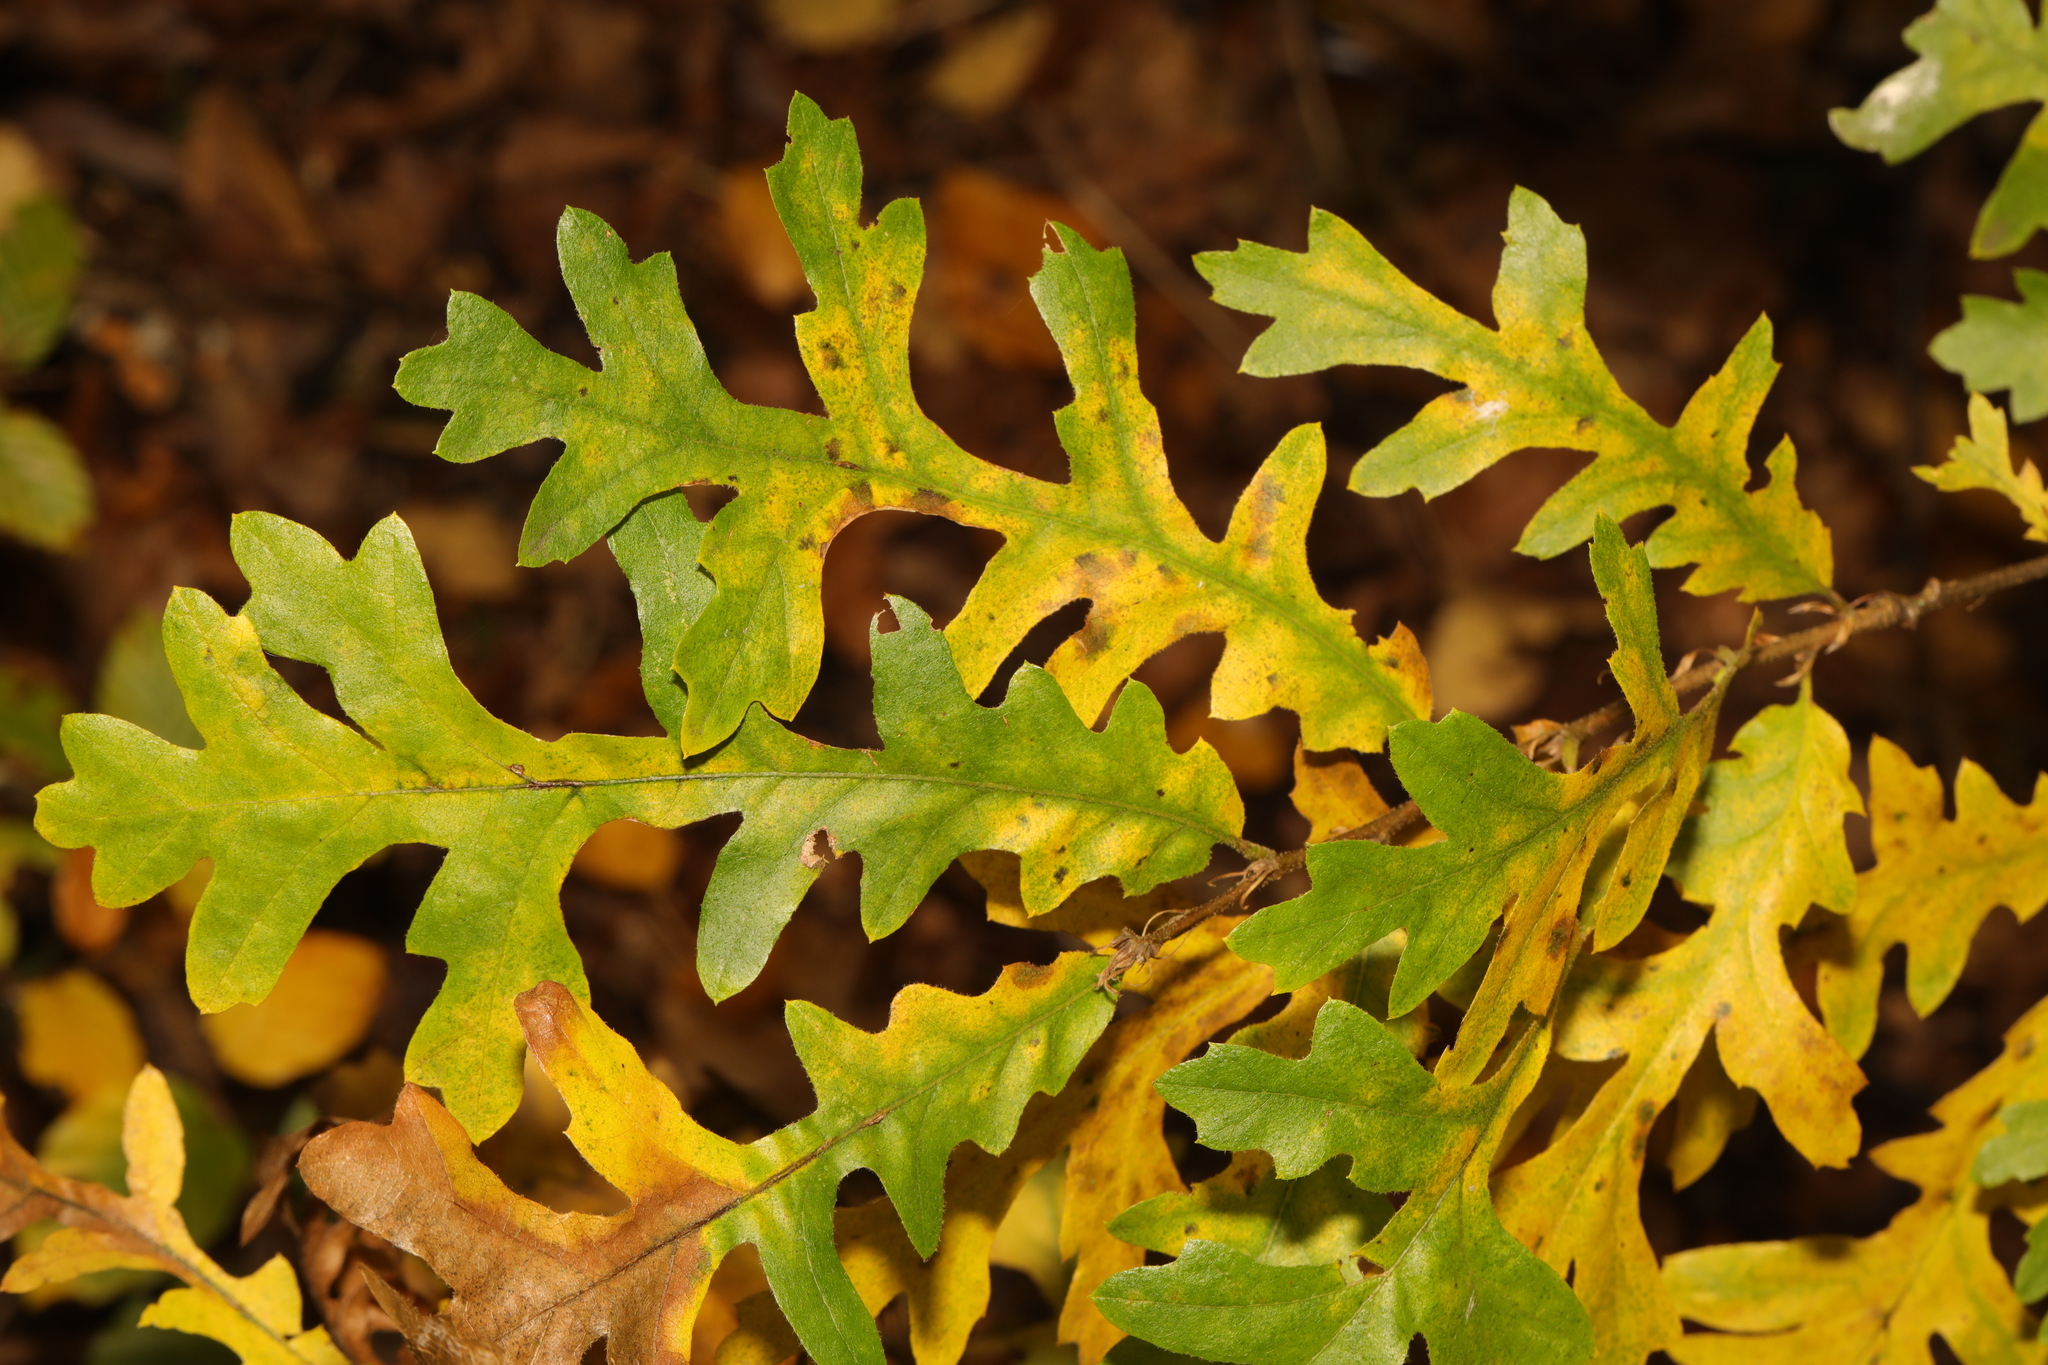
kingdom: Plantae
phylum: Tracheophyta
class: Magnoliopsida
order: Fagales
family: Fagaceae
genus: Quercus
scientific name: Quercus cerris
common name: Turkey oak
